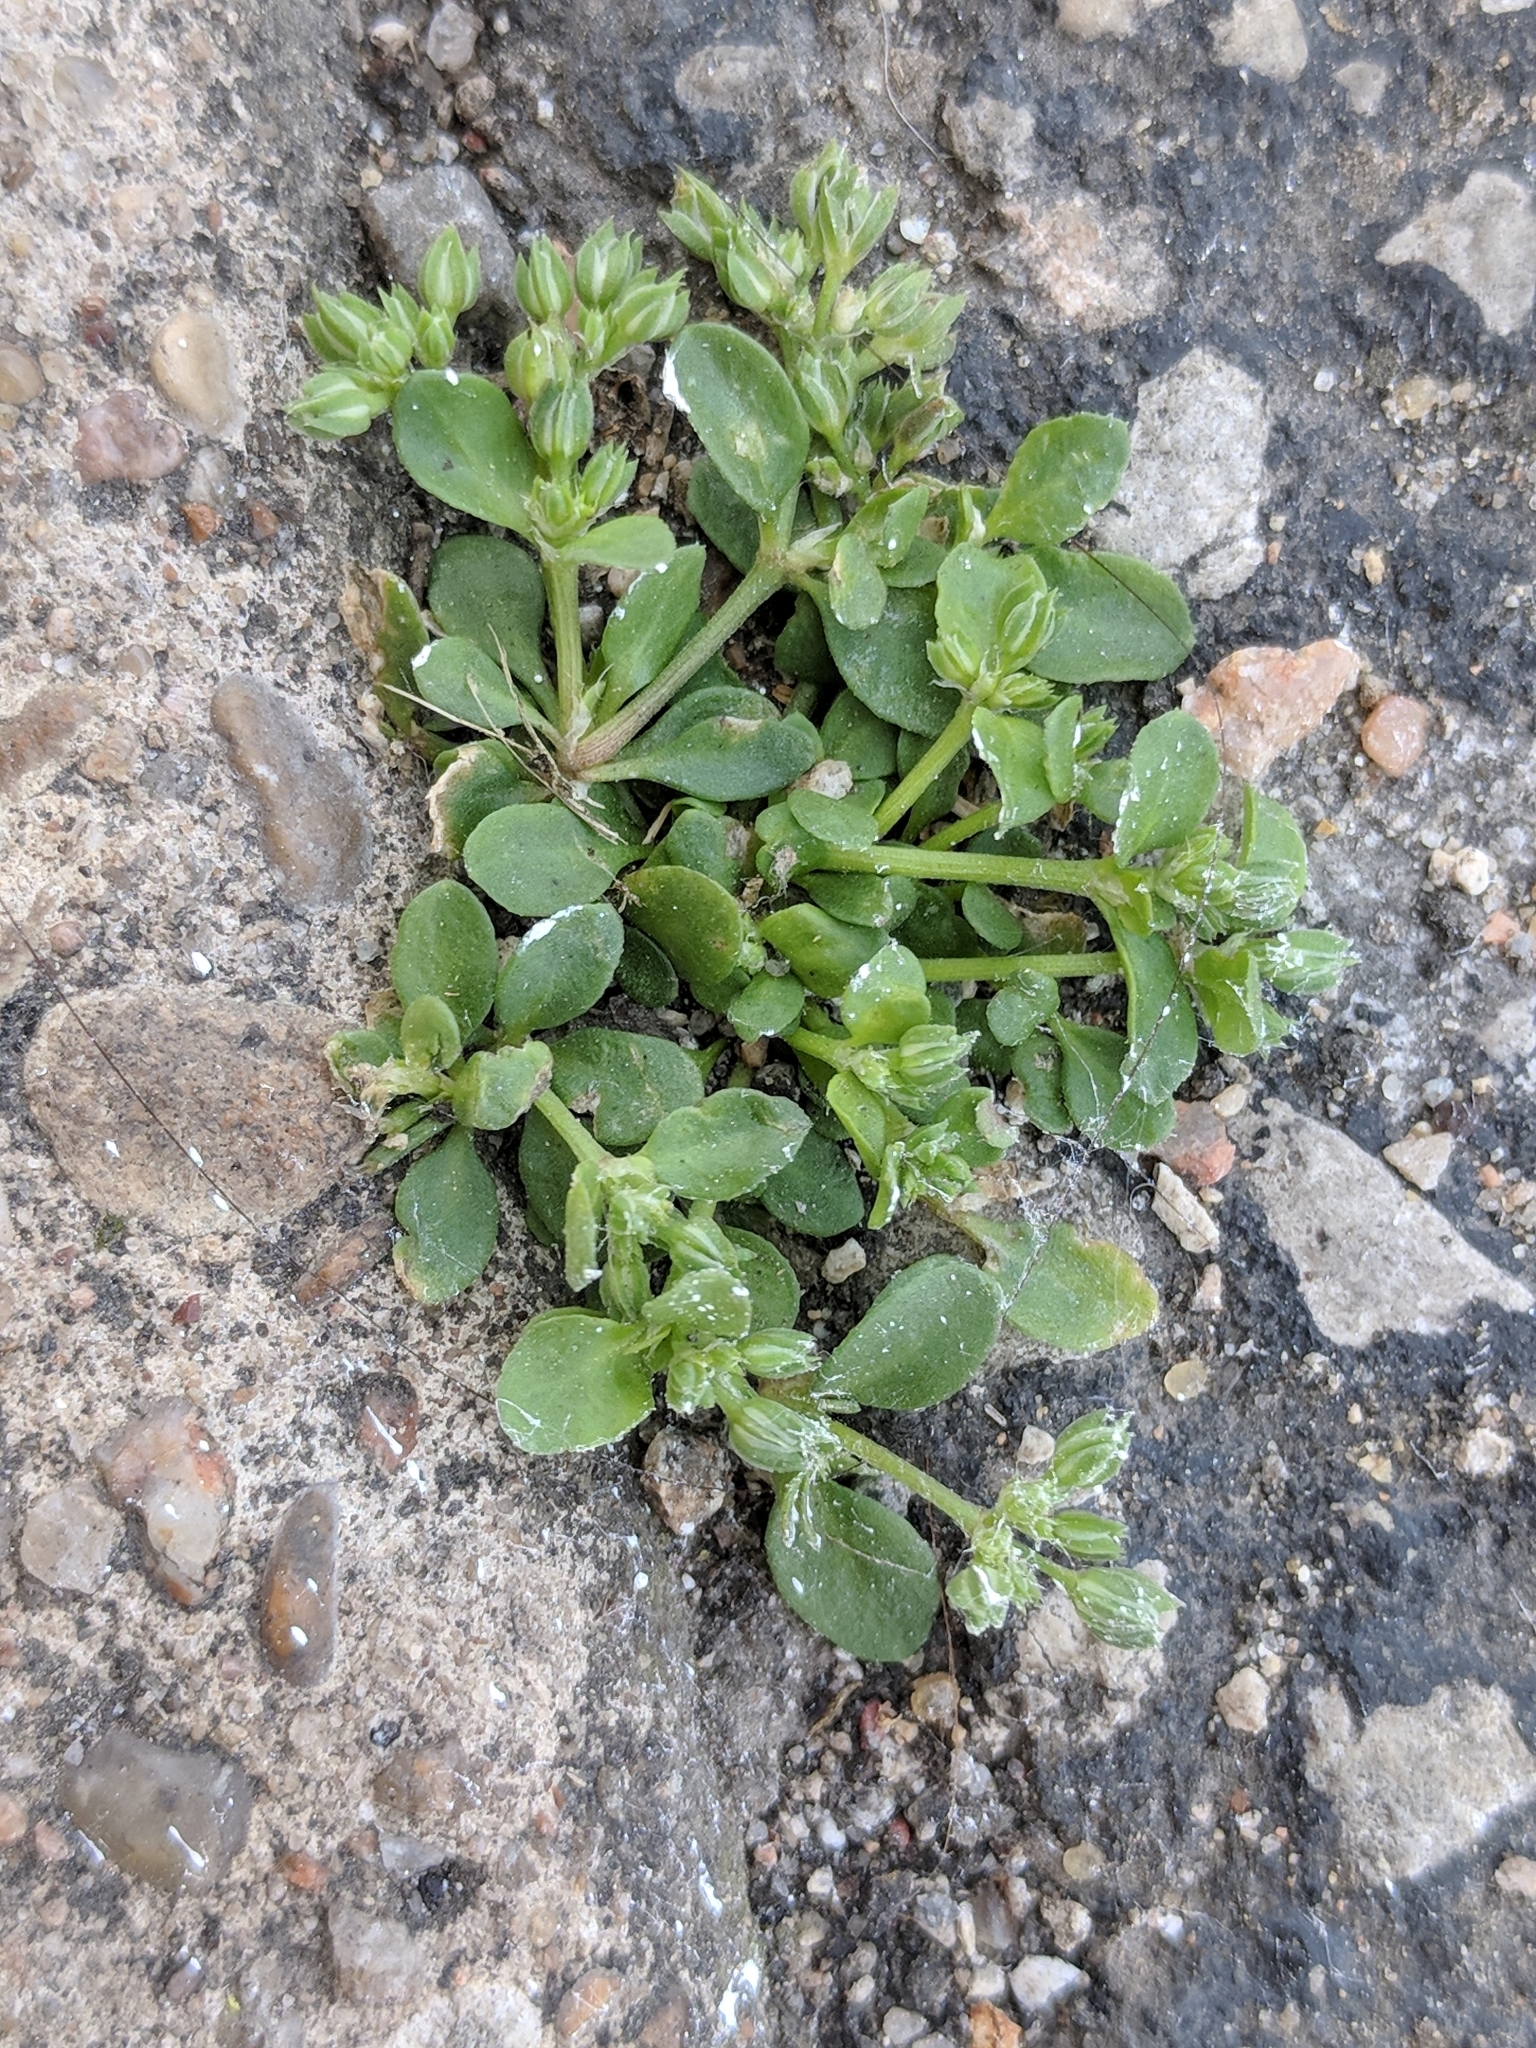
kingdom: Plantae
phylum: Tracheophyta
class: Magnoliopsida
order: Caryophyllales
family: Caryophyllaceae
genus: Polycarpon
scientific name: Polycarpon tetraphyllum
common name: Four-leaved all-seed
